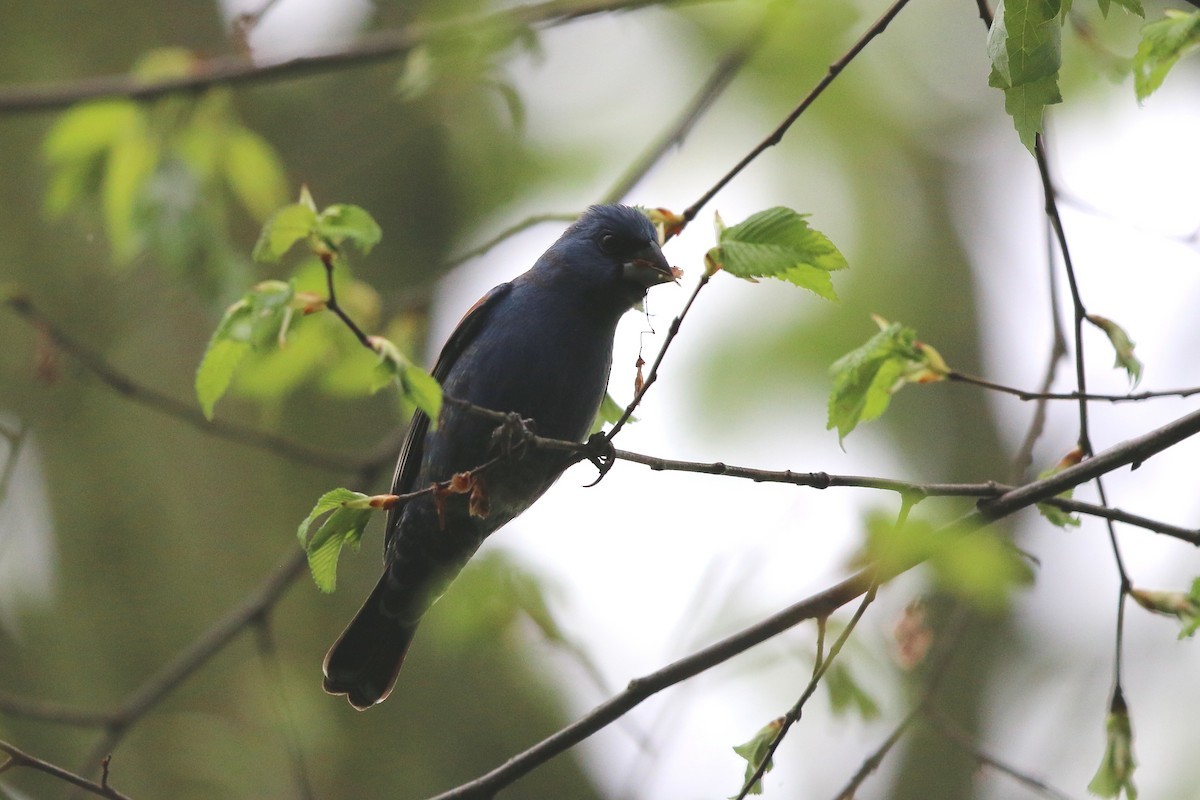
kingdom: Animalia
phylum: Chordata
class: Aves
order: Passeriformes
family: Cardinalidae
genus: Passerina
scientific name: Passerina caerulea
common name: Blue grosbeak
